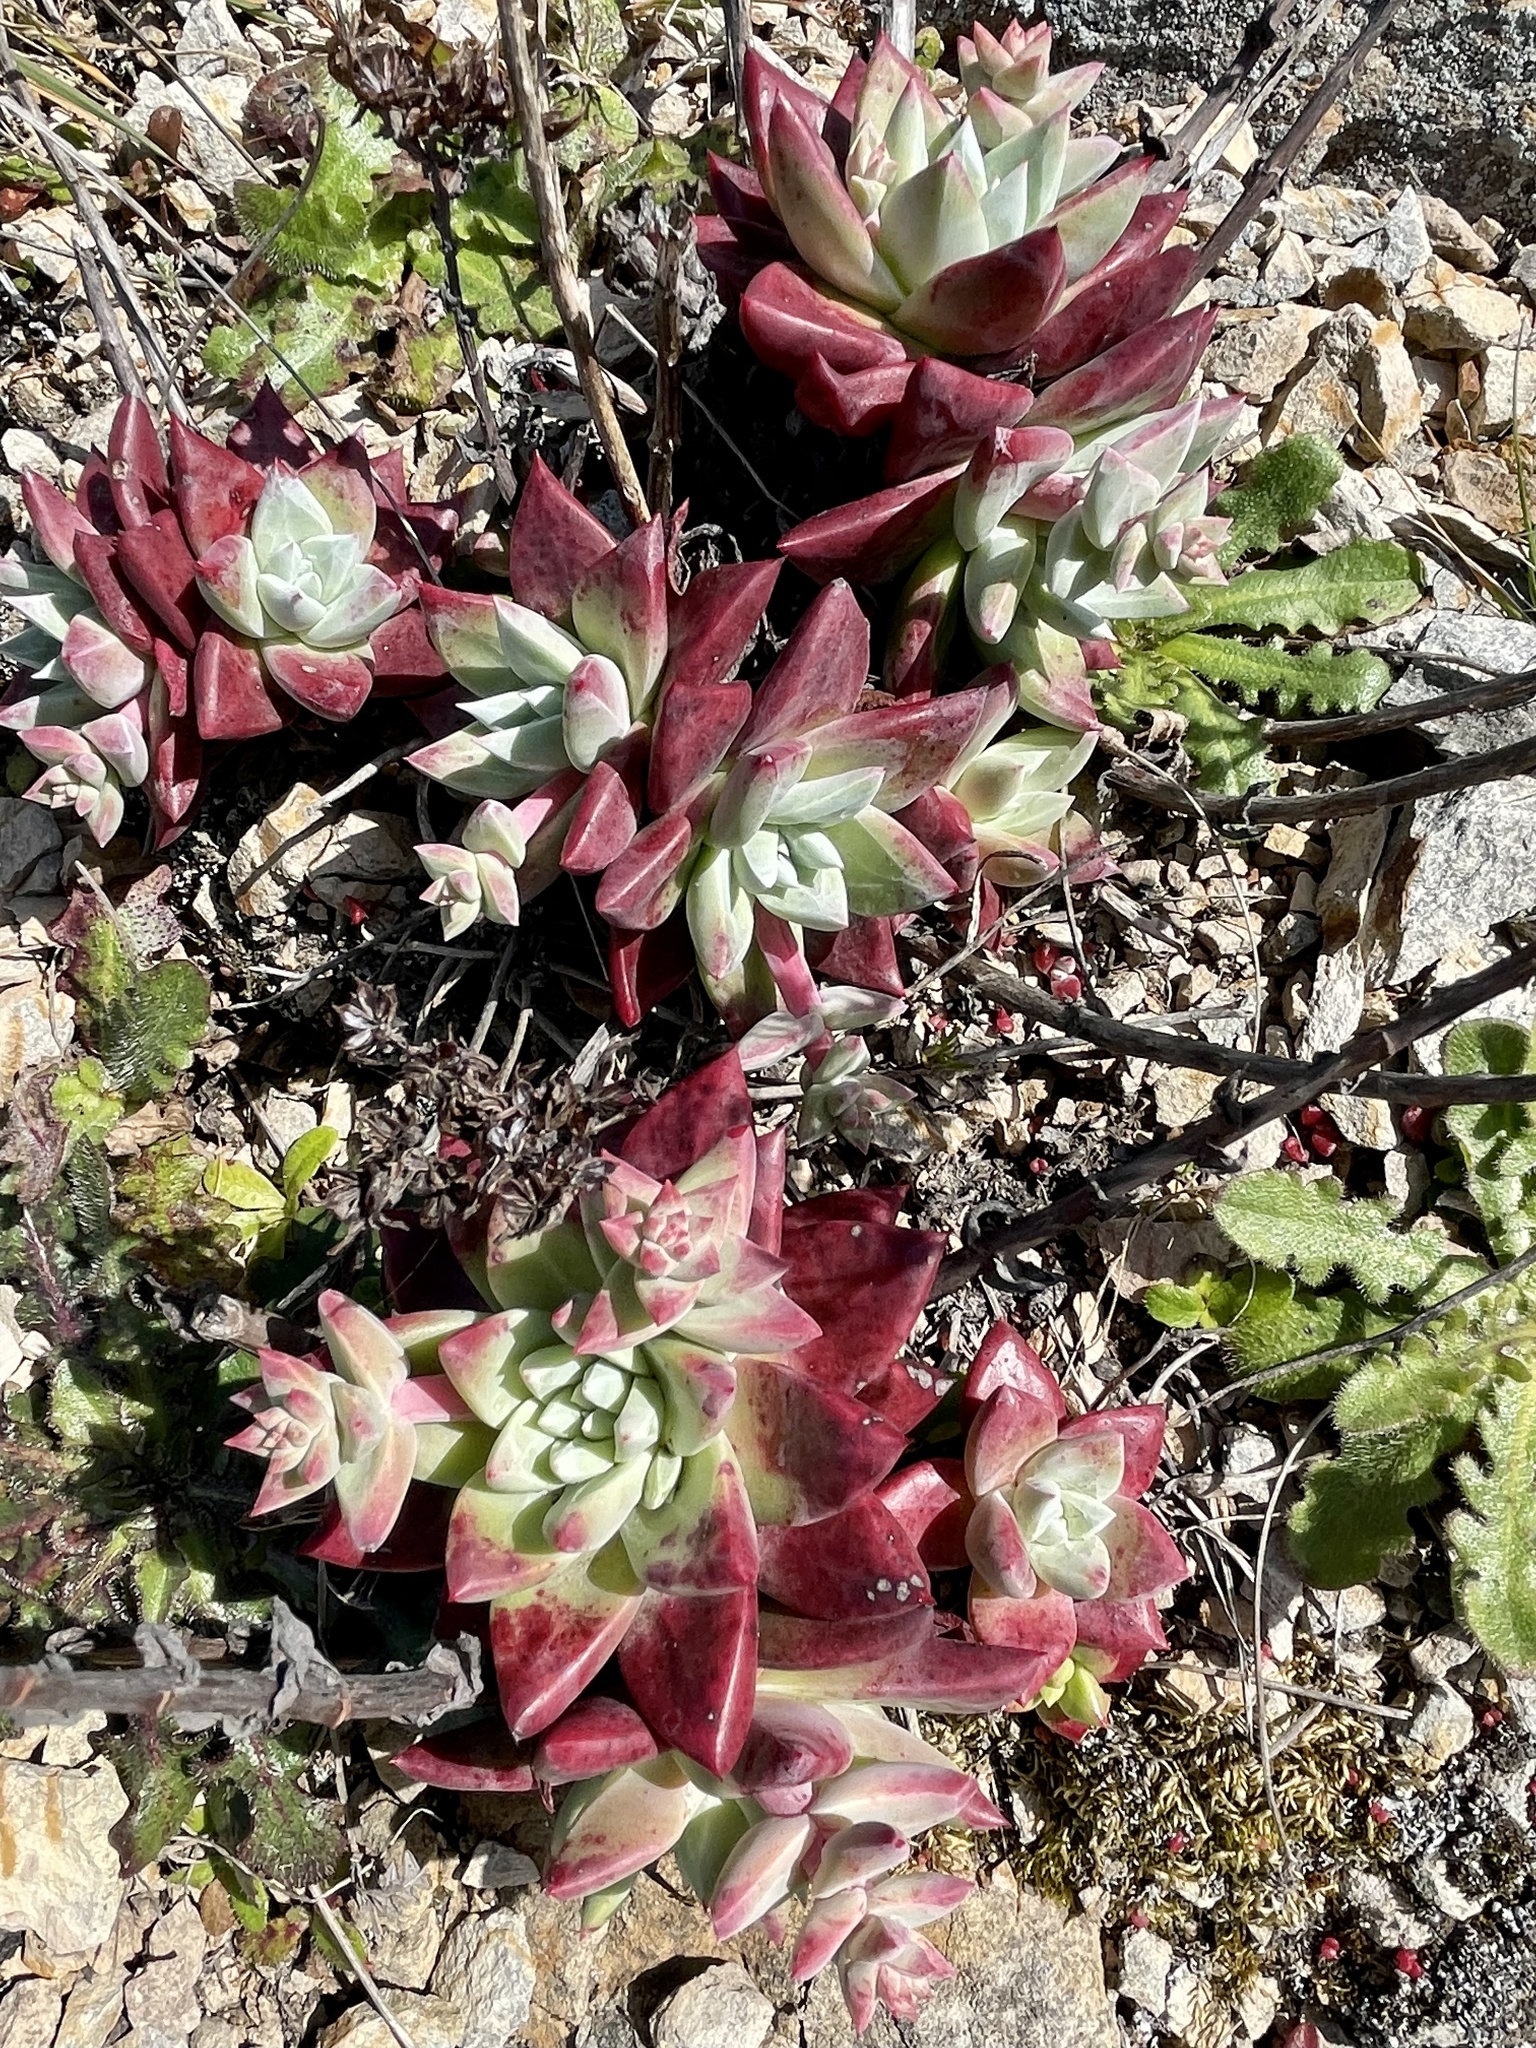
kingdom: Plantae
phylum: Tracheophyta
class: Magnoliopsida
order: Saxifragales
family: Crassulaceae
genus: Dudleya
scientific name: Dudleya farinosa
